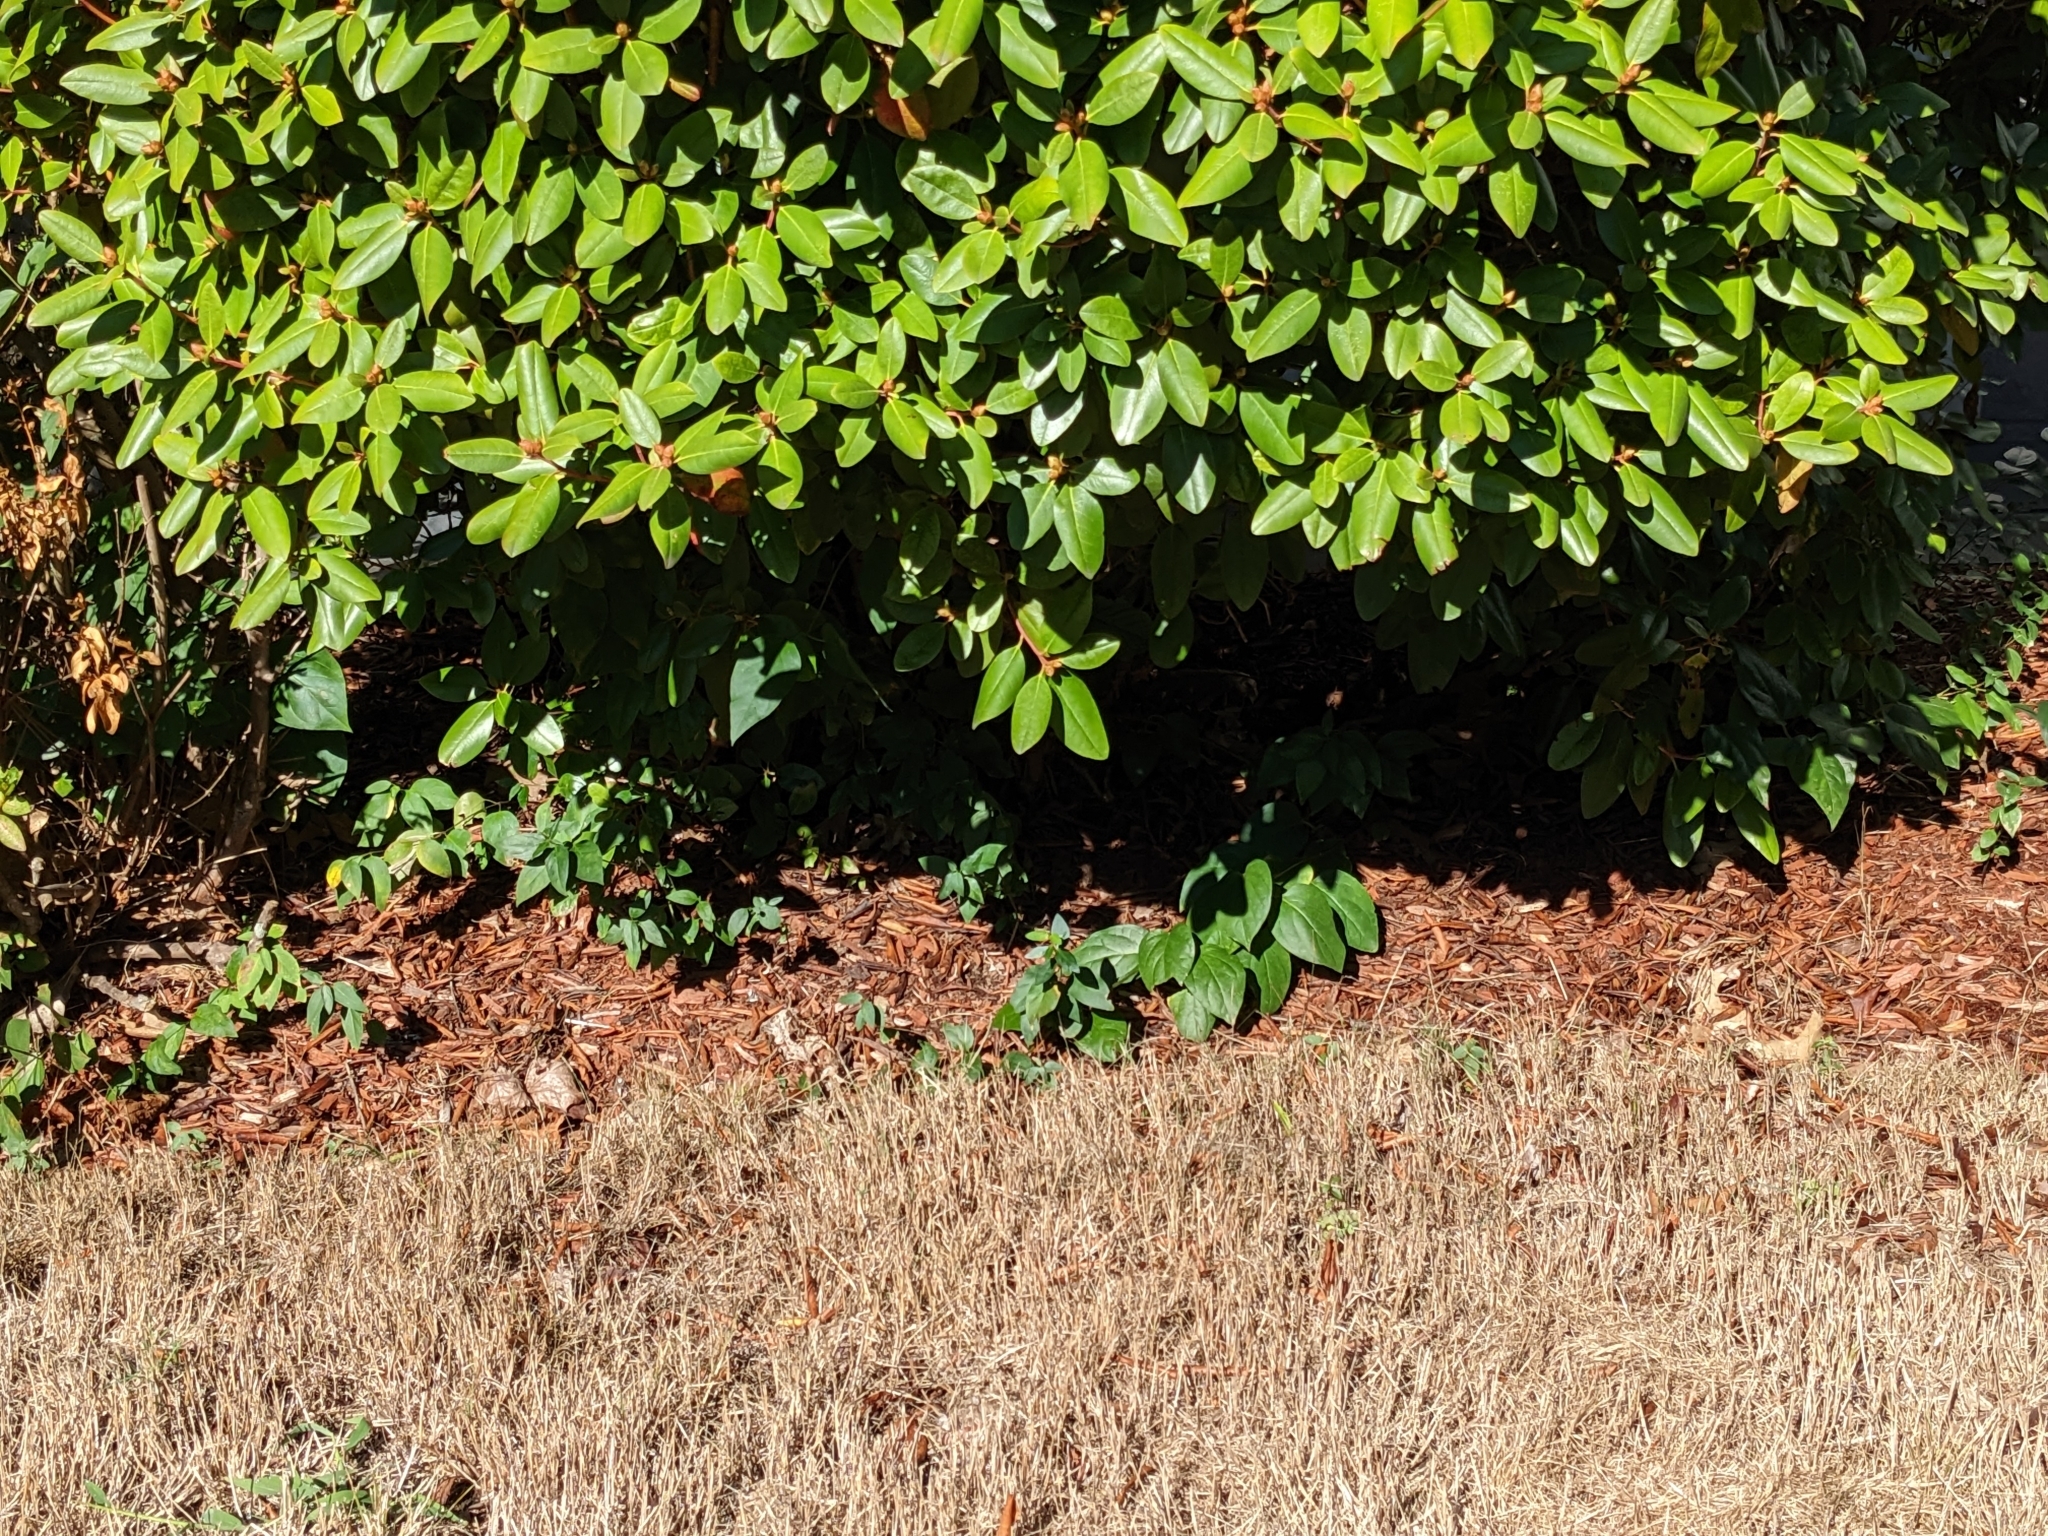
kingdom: Plantae
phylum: Tracheophyta
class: Magnoliopsida
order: Gentianales
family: Apocynaceae
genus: Vincetoxicum
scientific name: Vincetoxicum nigrum
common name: Black swallow-wort
